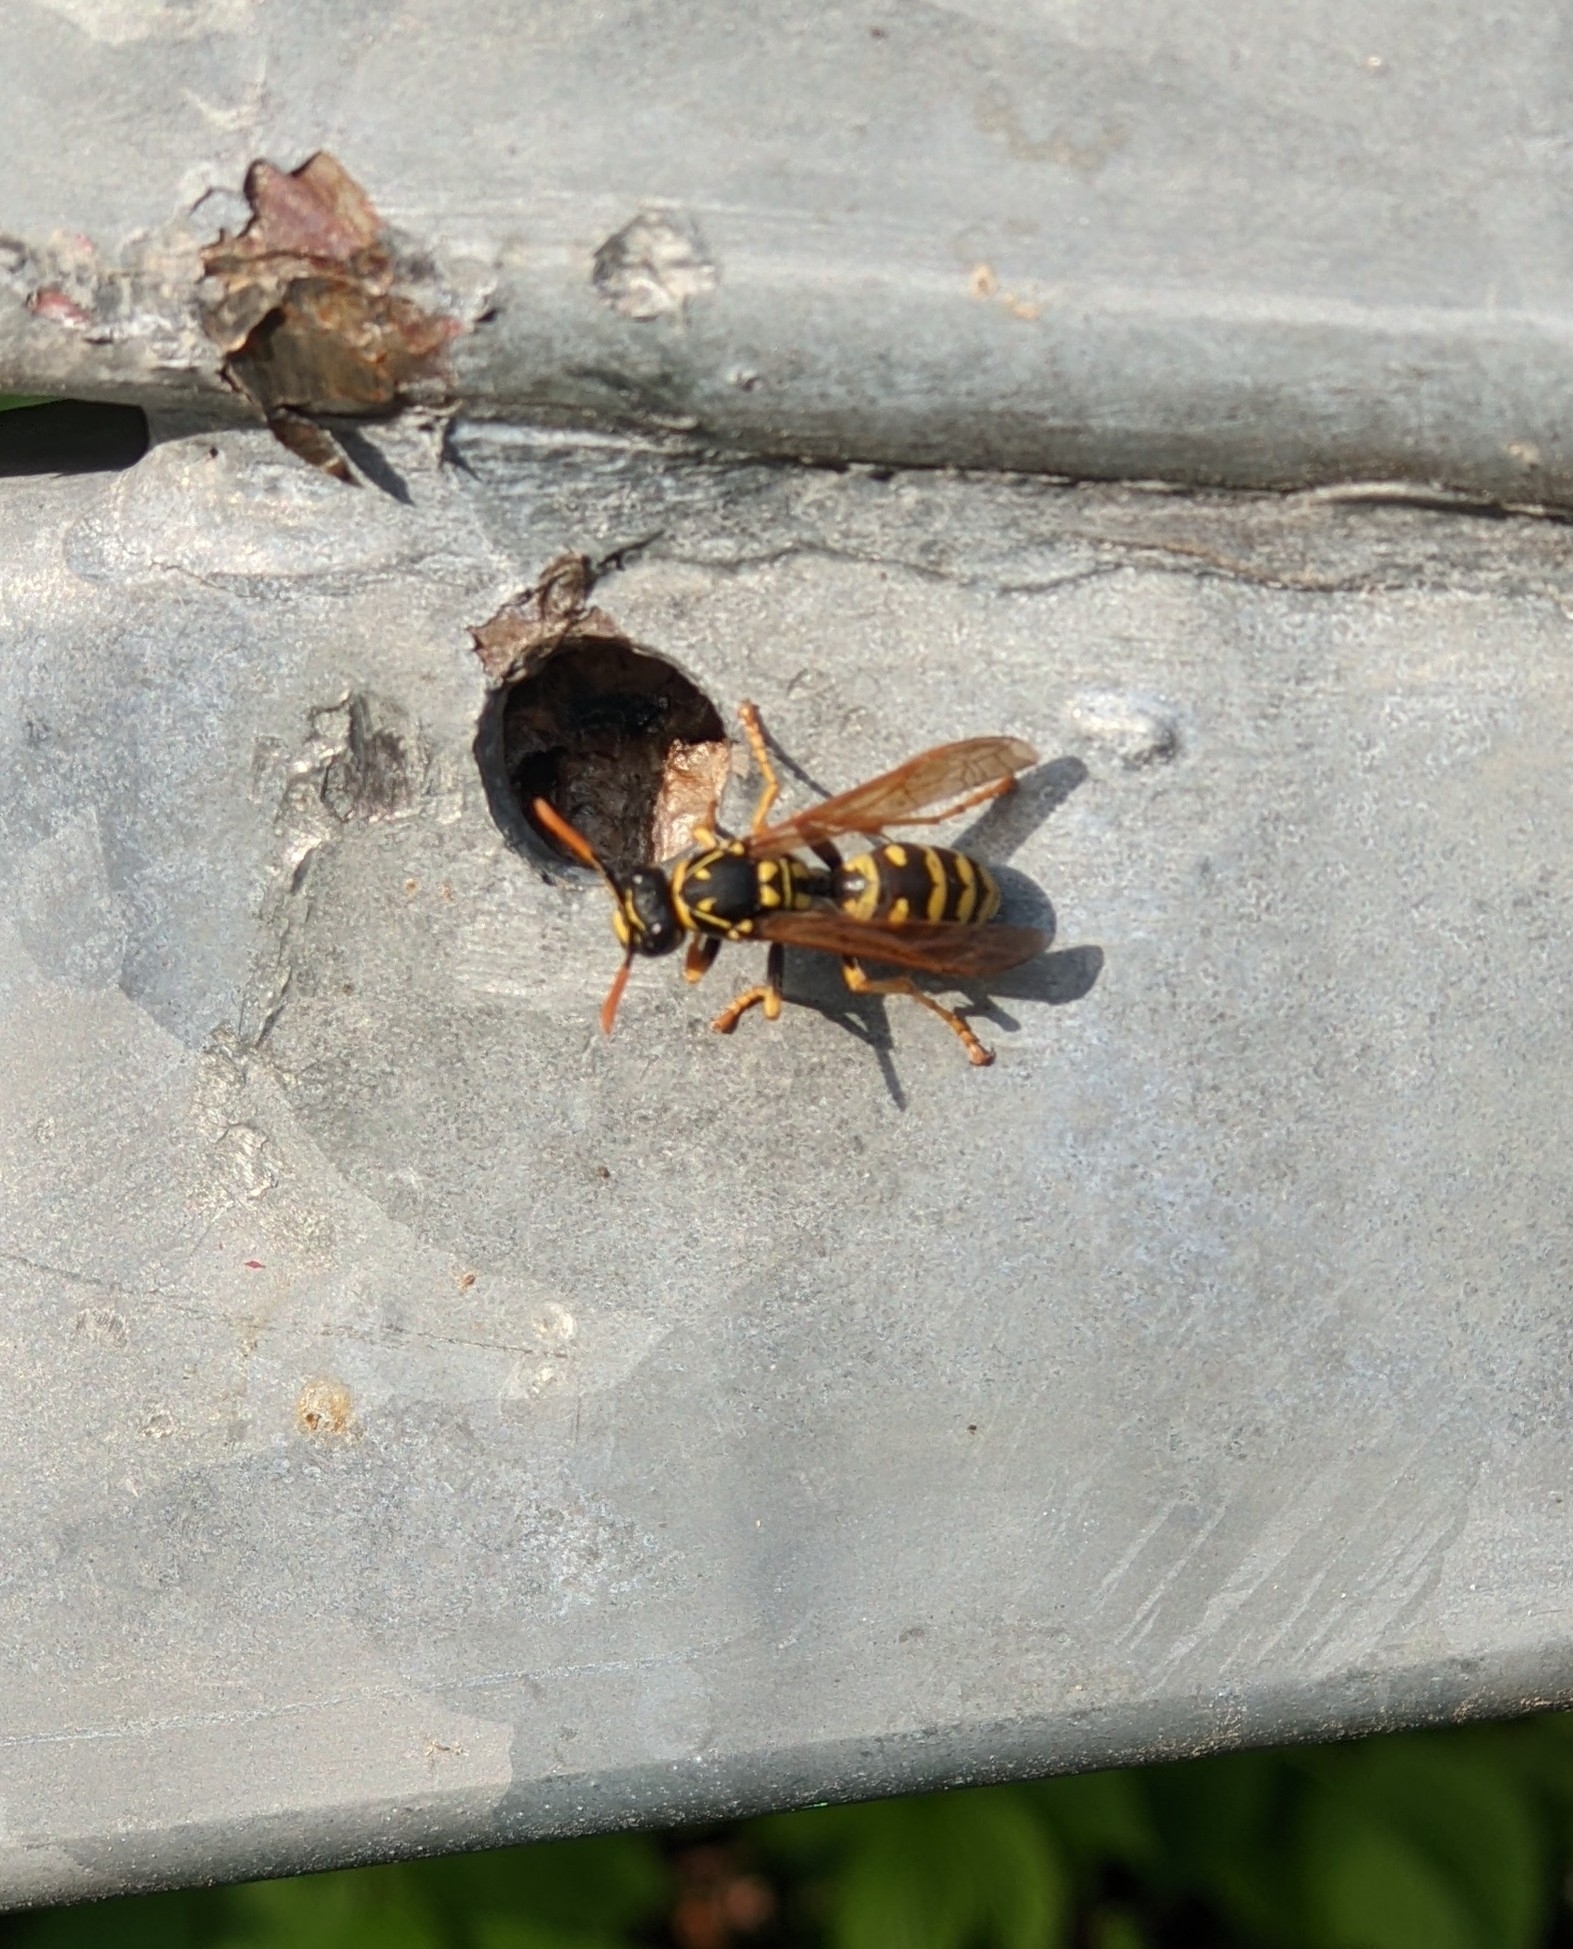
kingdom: Animalia
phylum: Arthropoda
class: Insecta
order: Hymenoptera
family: Eumenidae
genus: Polistes
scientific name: Polistes dominula
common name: Paper wasp
